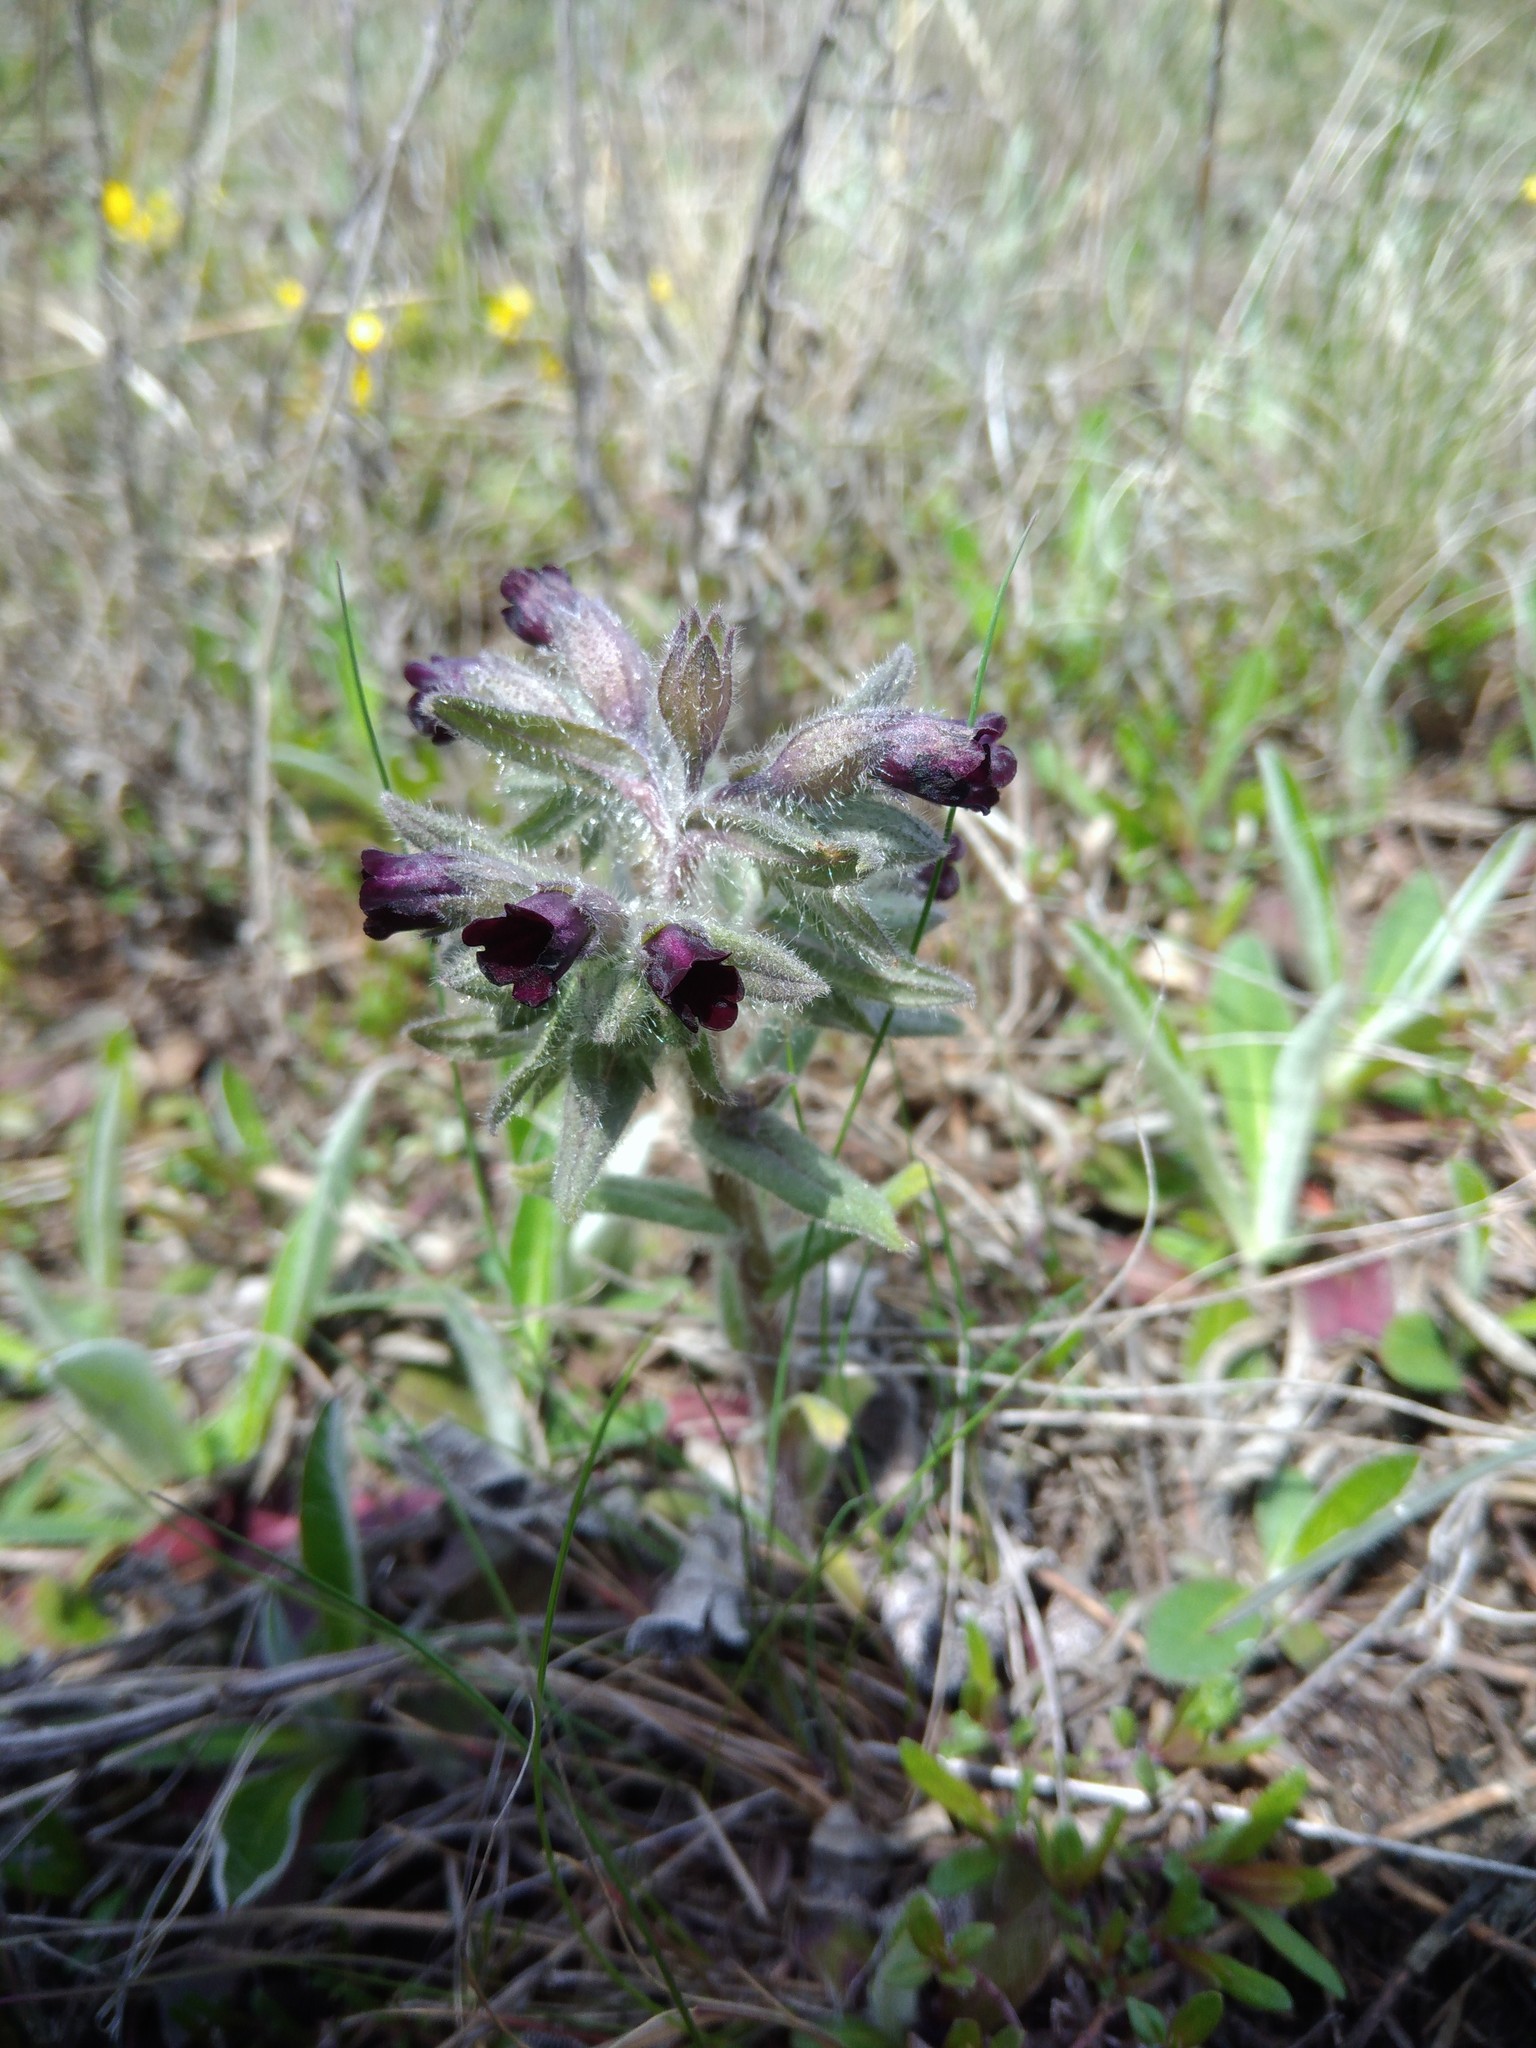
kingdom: Plantae
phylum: Tracheophyta
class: Magnoliopsida
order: Boraginales
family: Boraginaceae
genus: Nonea
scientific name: Nonea pulla
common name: Brown nonea
